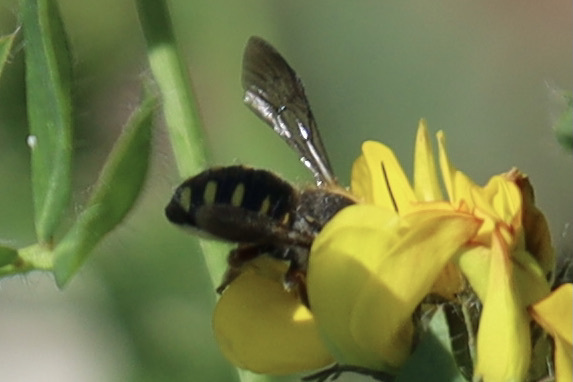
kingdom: Animalia
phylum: Arthropoda
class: Insecta
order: Hymenoptera
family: Megachilidae
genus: Anthidium
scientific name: Anthidium oblongatum
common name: Oblong wool carder bee
